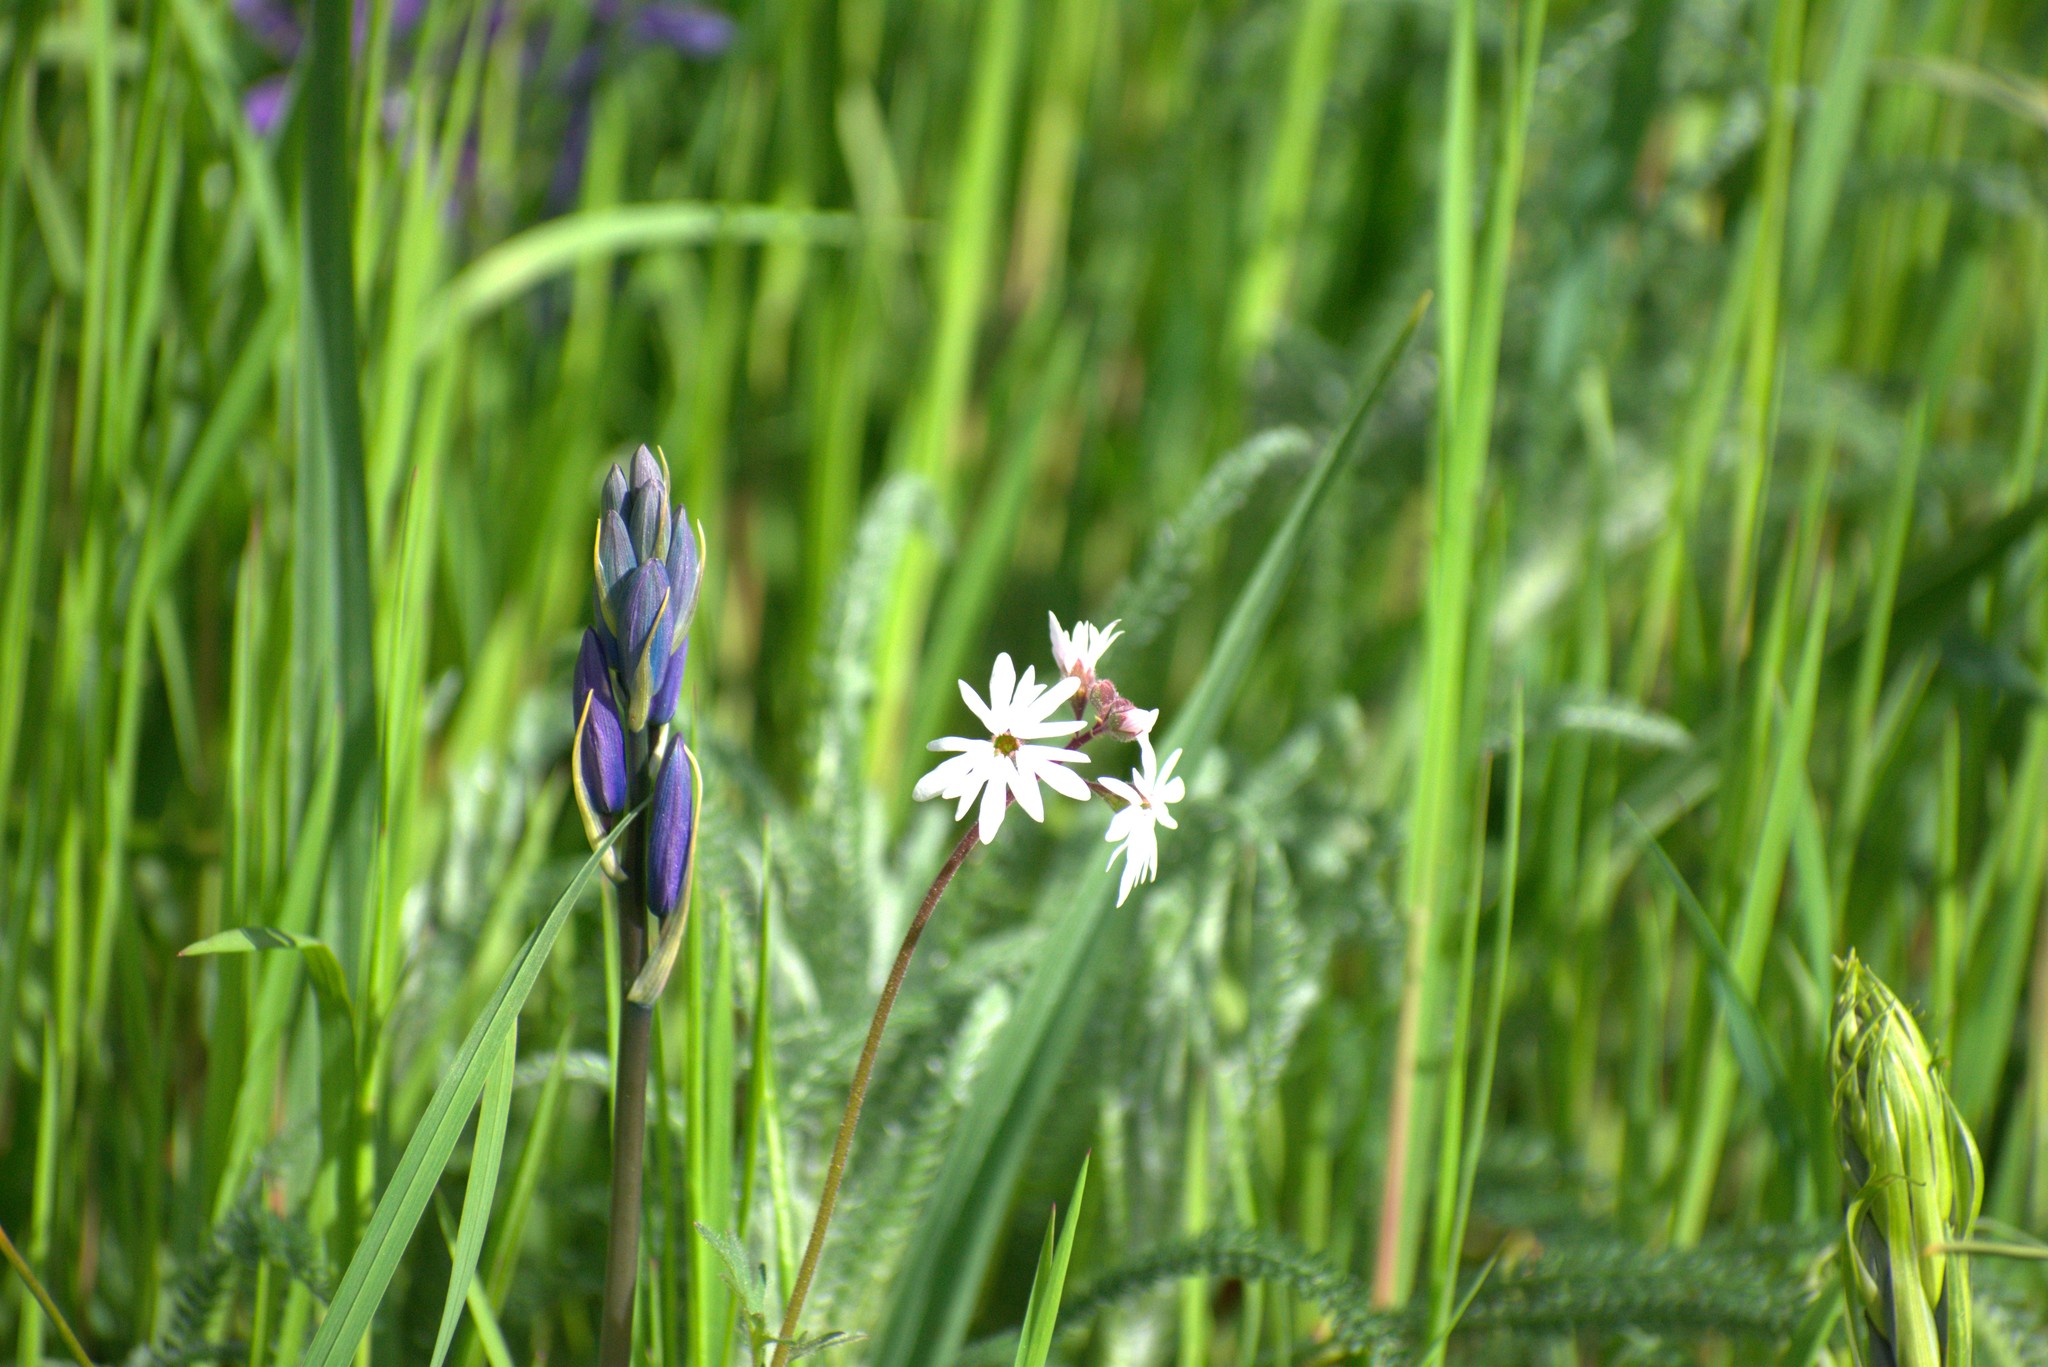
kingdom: Plantae
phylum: Tracheophyta
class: Magnoliopsida
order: Saxifragales
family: Saxifragaceae
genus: Lithophragma
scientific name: Lithophragma parviflorum
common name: Small-flowered fringe-cup
